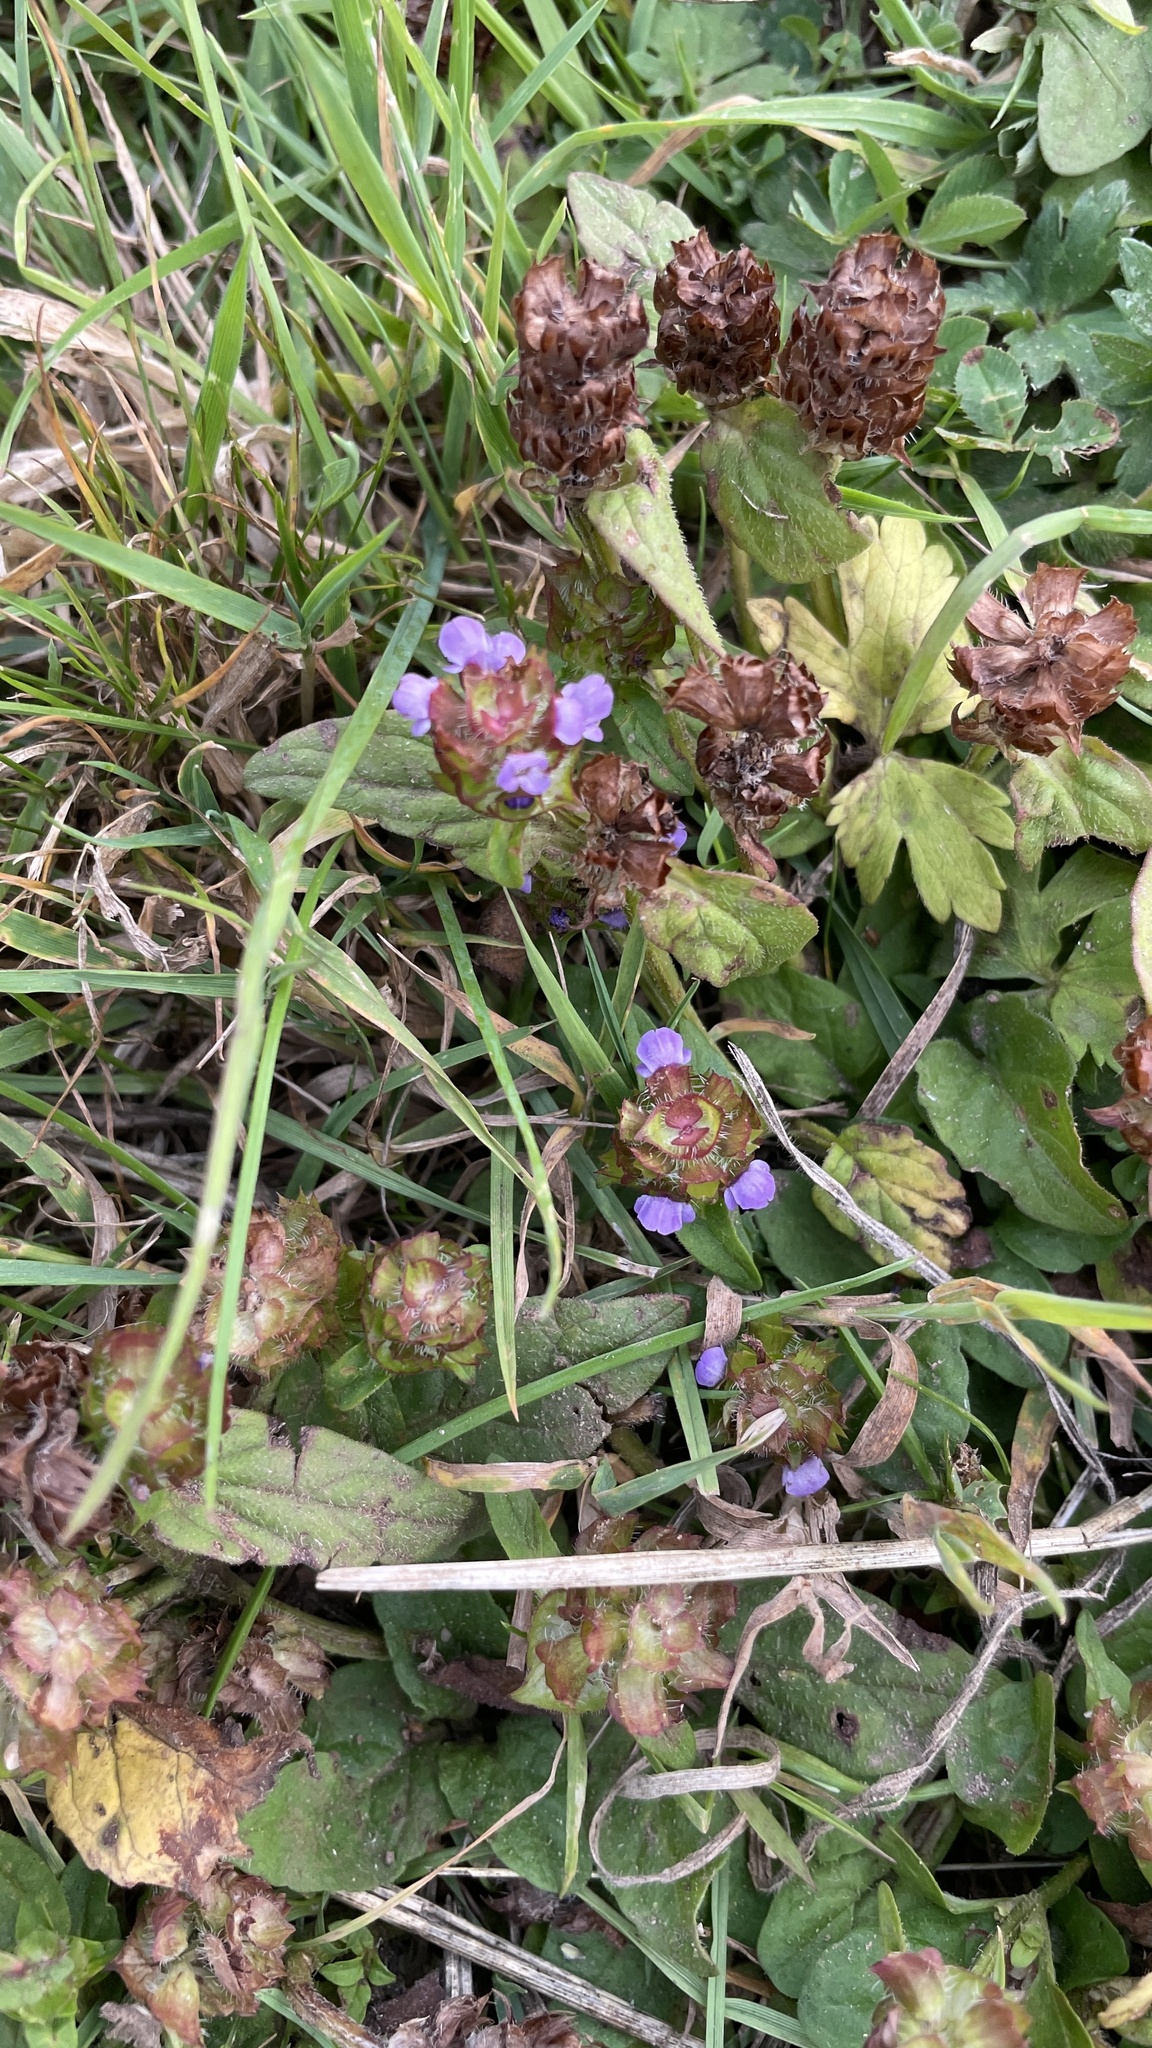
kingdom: Plantae
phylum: Tracheophyta
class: Magnoliopsida
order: Lamiales
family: Lamiaceae
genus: Prunella
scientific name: Prunella vulgaris
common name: Heal-all
